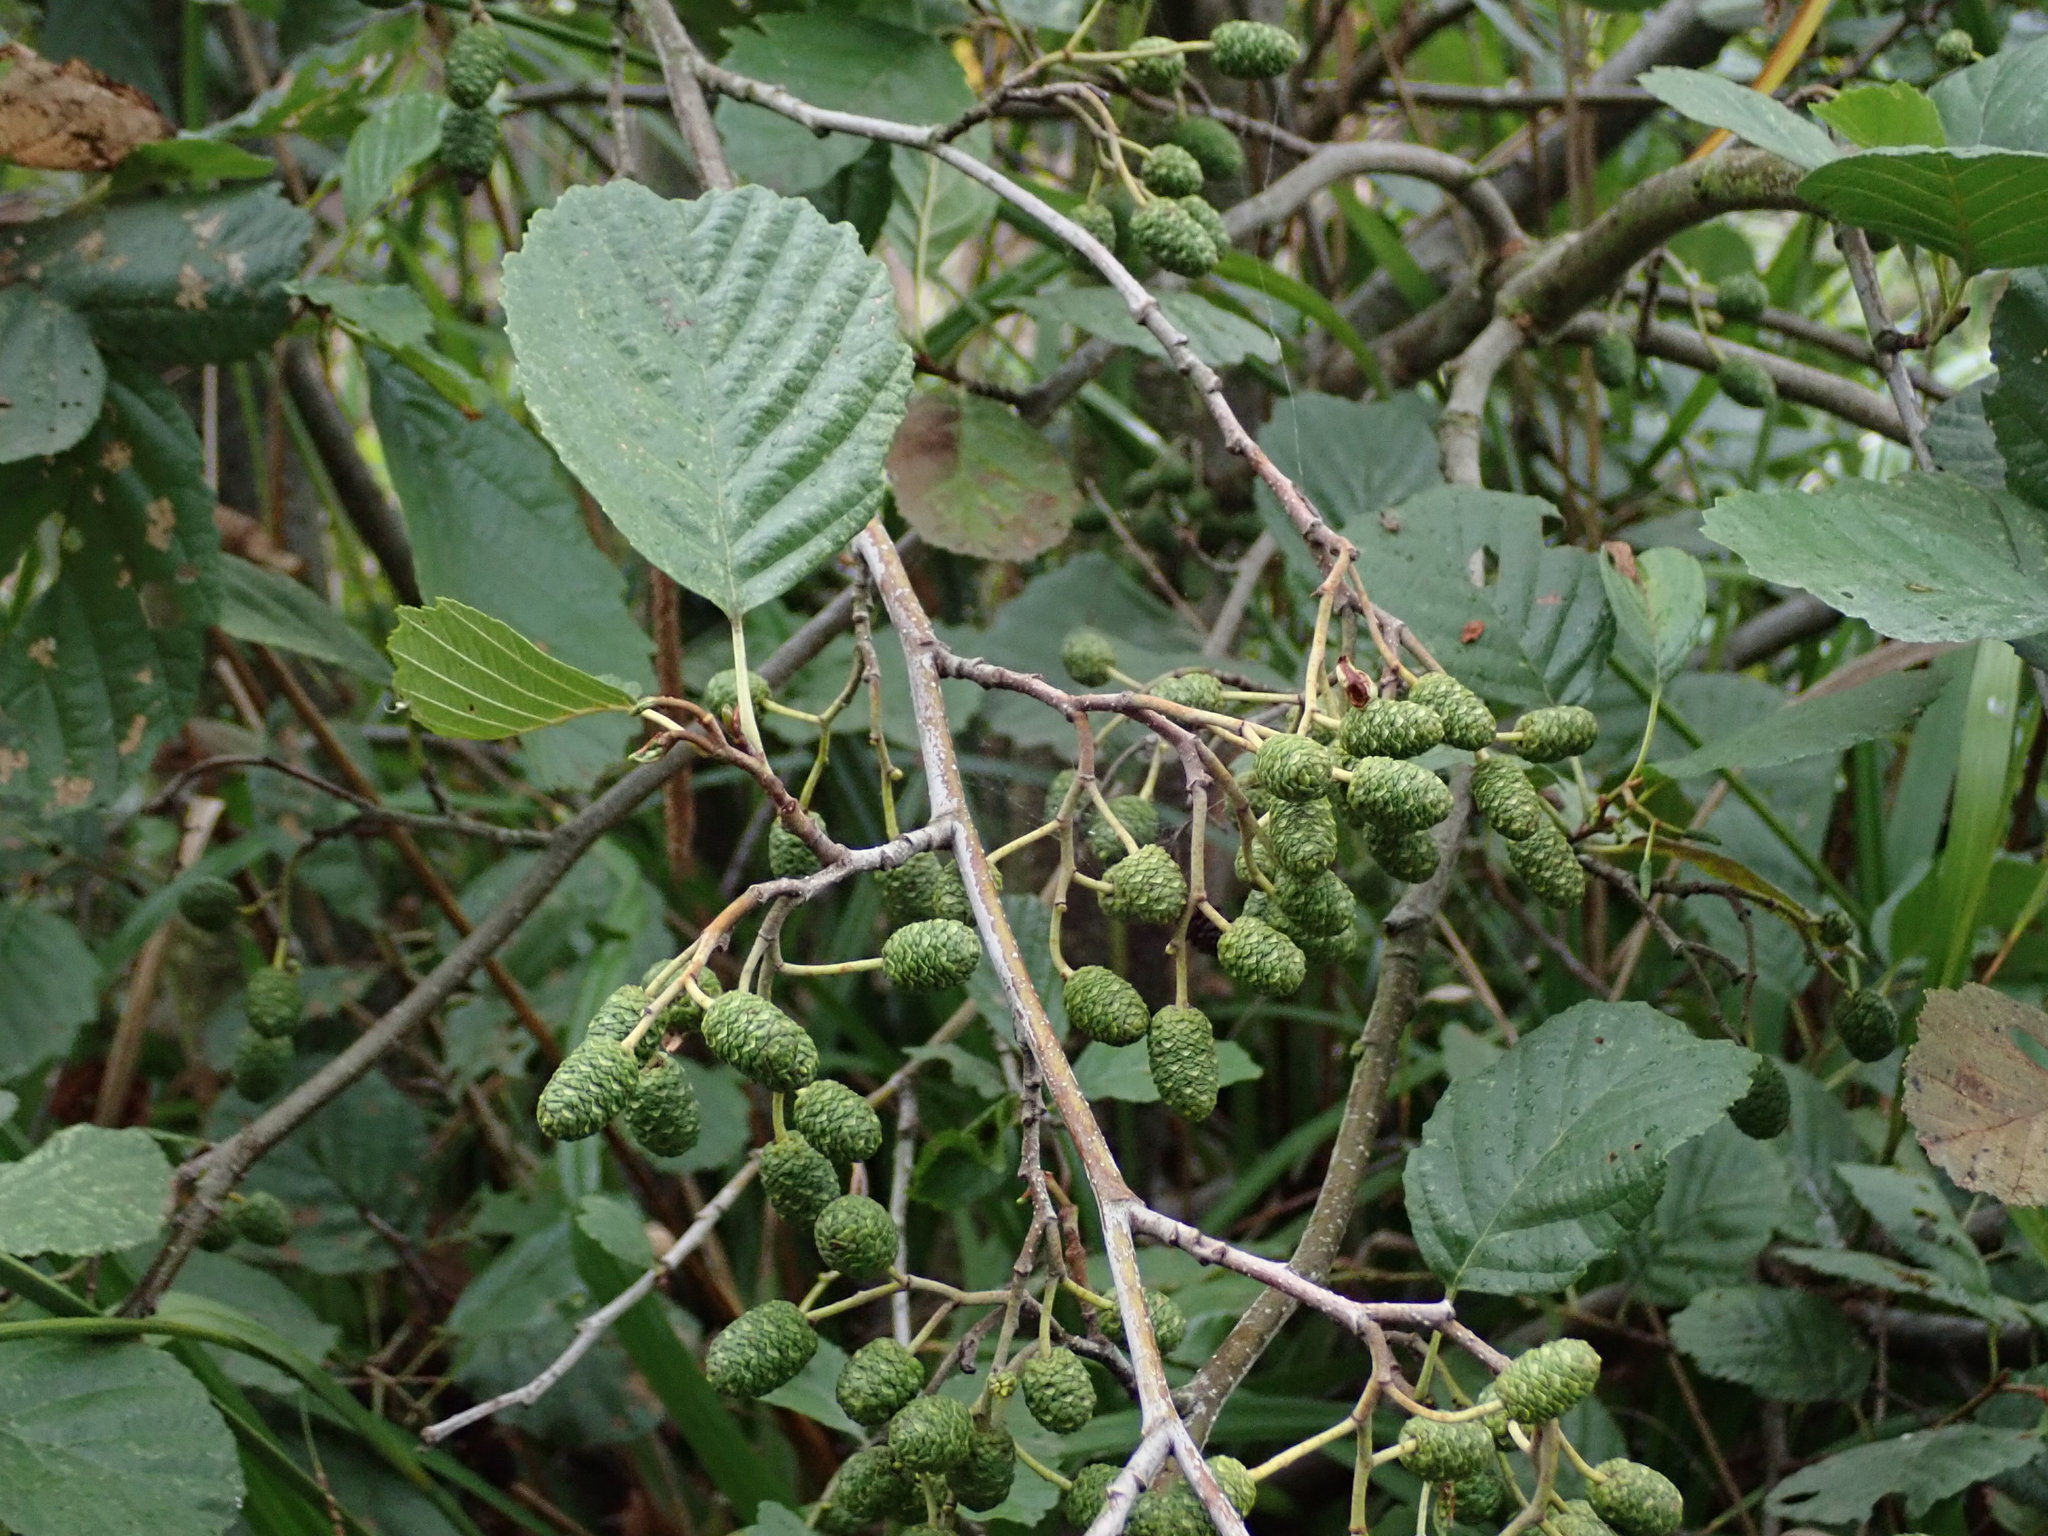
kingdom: Plantae
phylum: Tracheophyta
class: Magnoliopsida
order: Fagales
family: Betulaceae
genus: Alnus
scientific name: Alnus glutinosa
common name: Black alder
